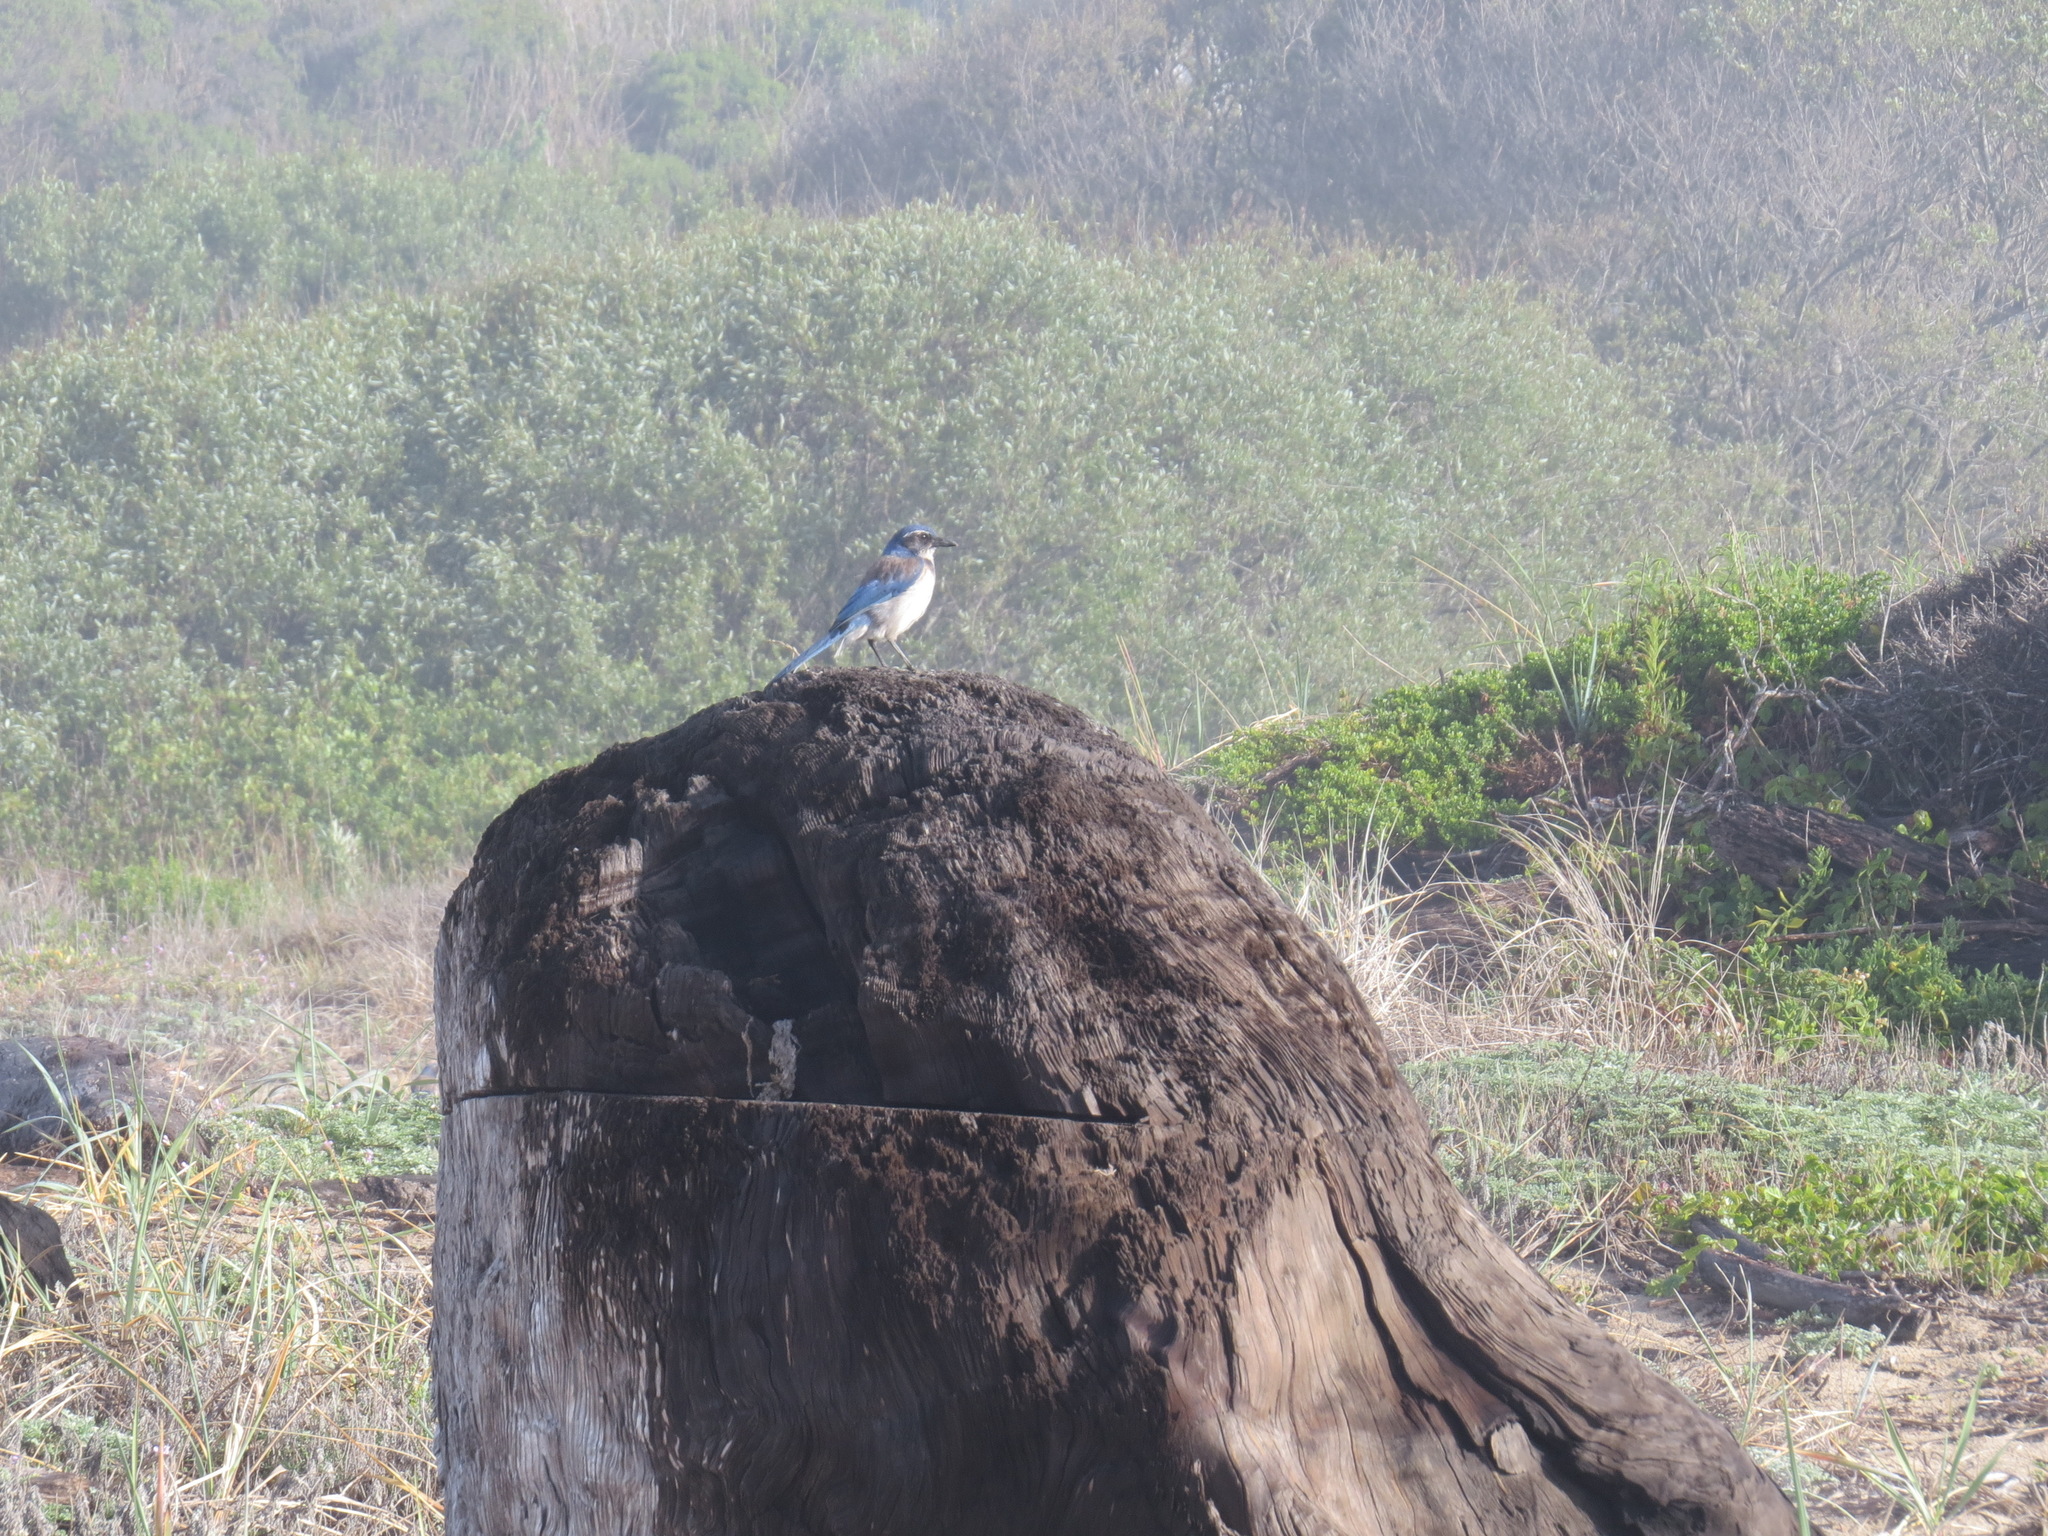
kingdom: Animalia
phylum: Chordata
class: Aves
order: Passeriformes
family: Corvidae
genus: Aphelocoma
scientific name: Aphelocoma californica
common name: California scrub-jay
